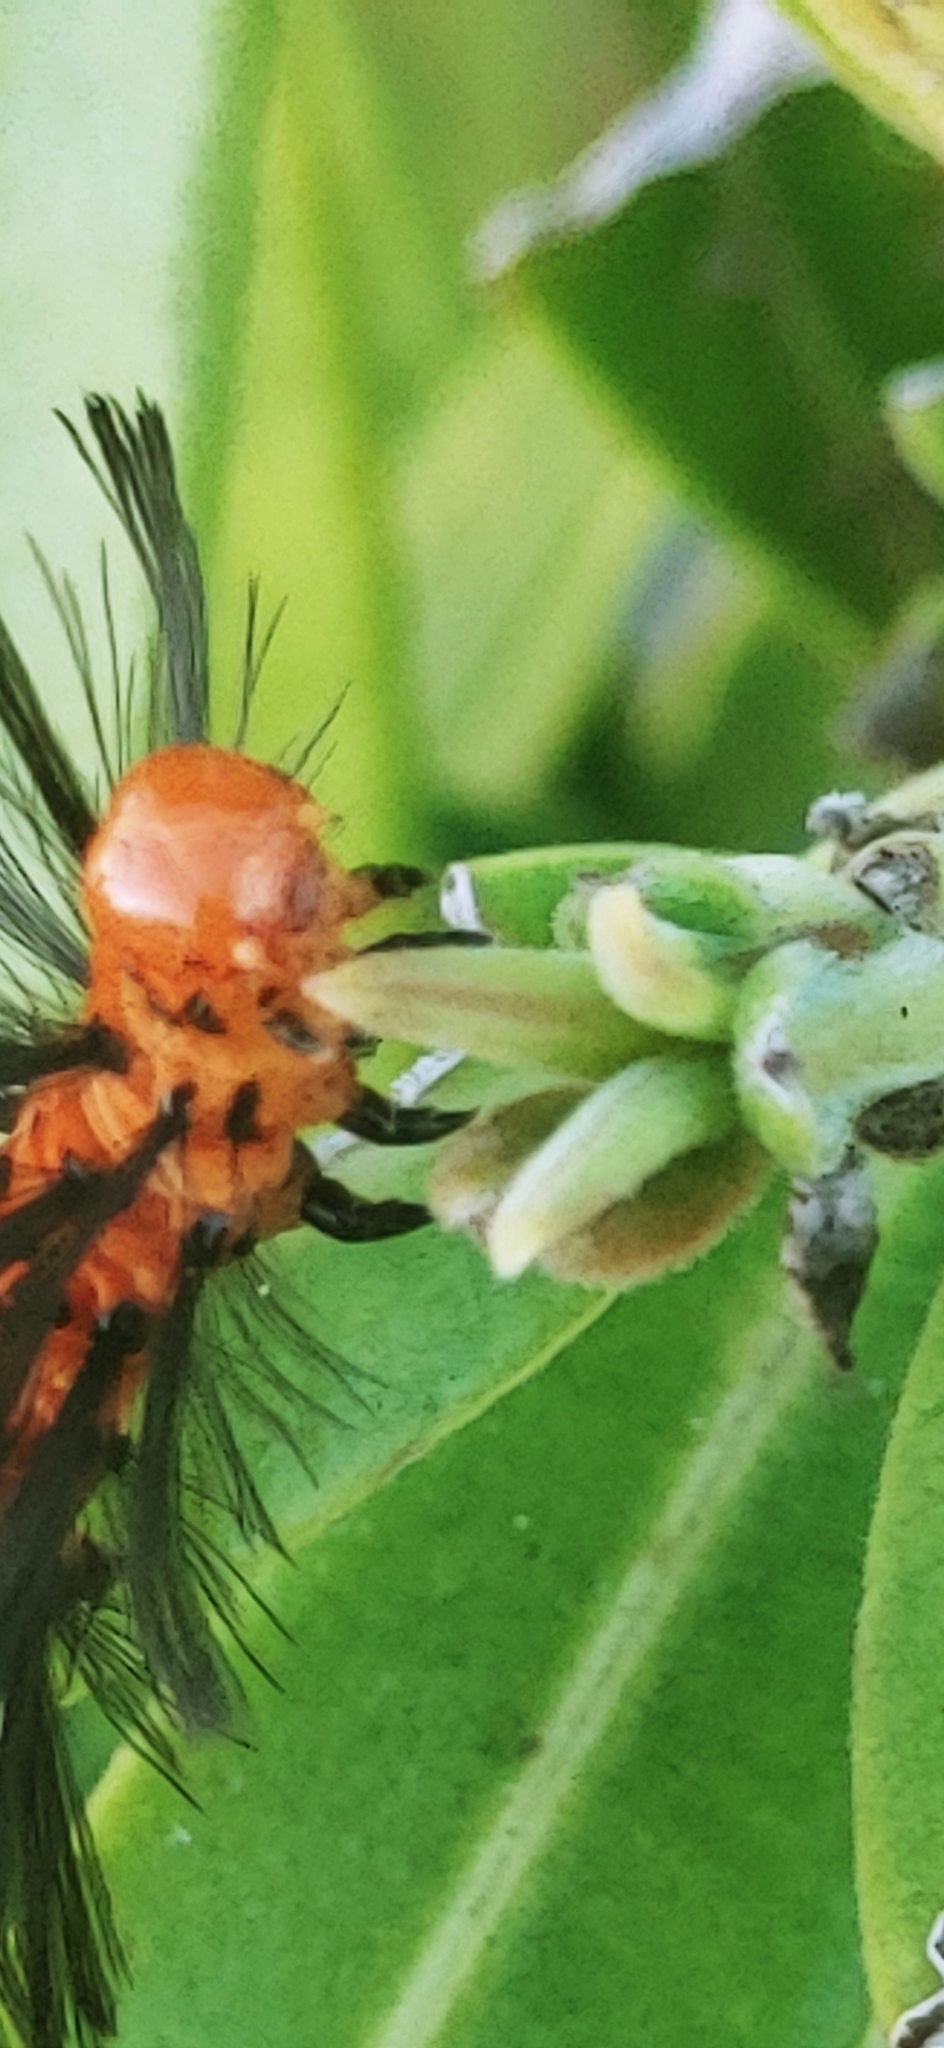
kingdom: Animalia
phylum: Arthropoda
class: Insecta
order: Lepidoptera
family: Erebidae
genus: Syntomeida
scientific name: Syntomeida epilais
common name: Polka-dot wasp moth
